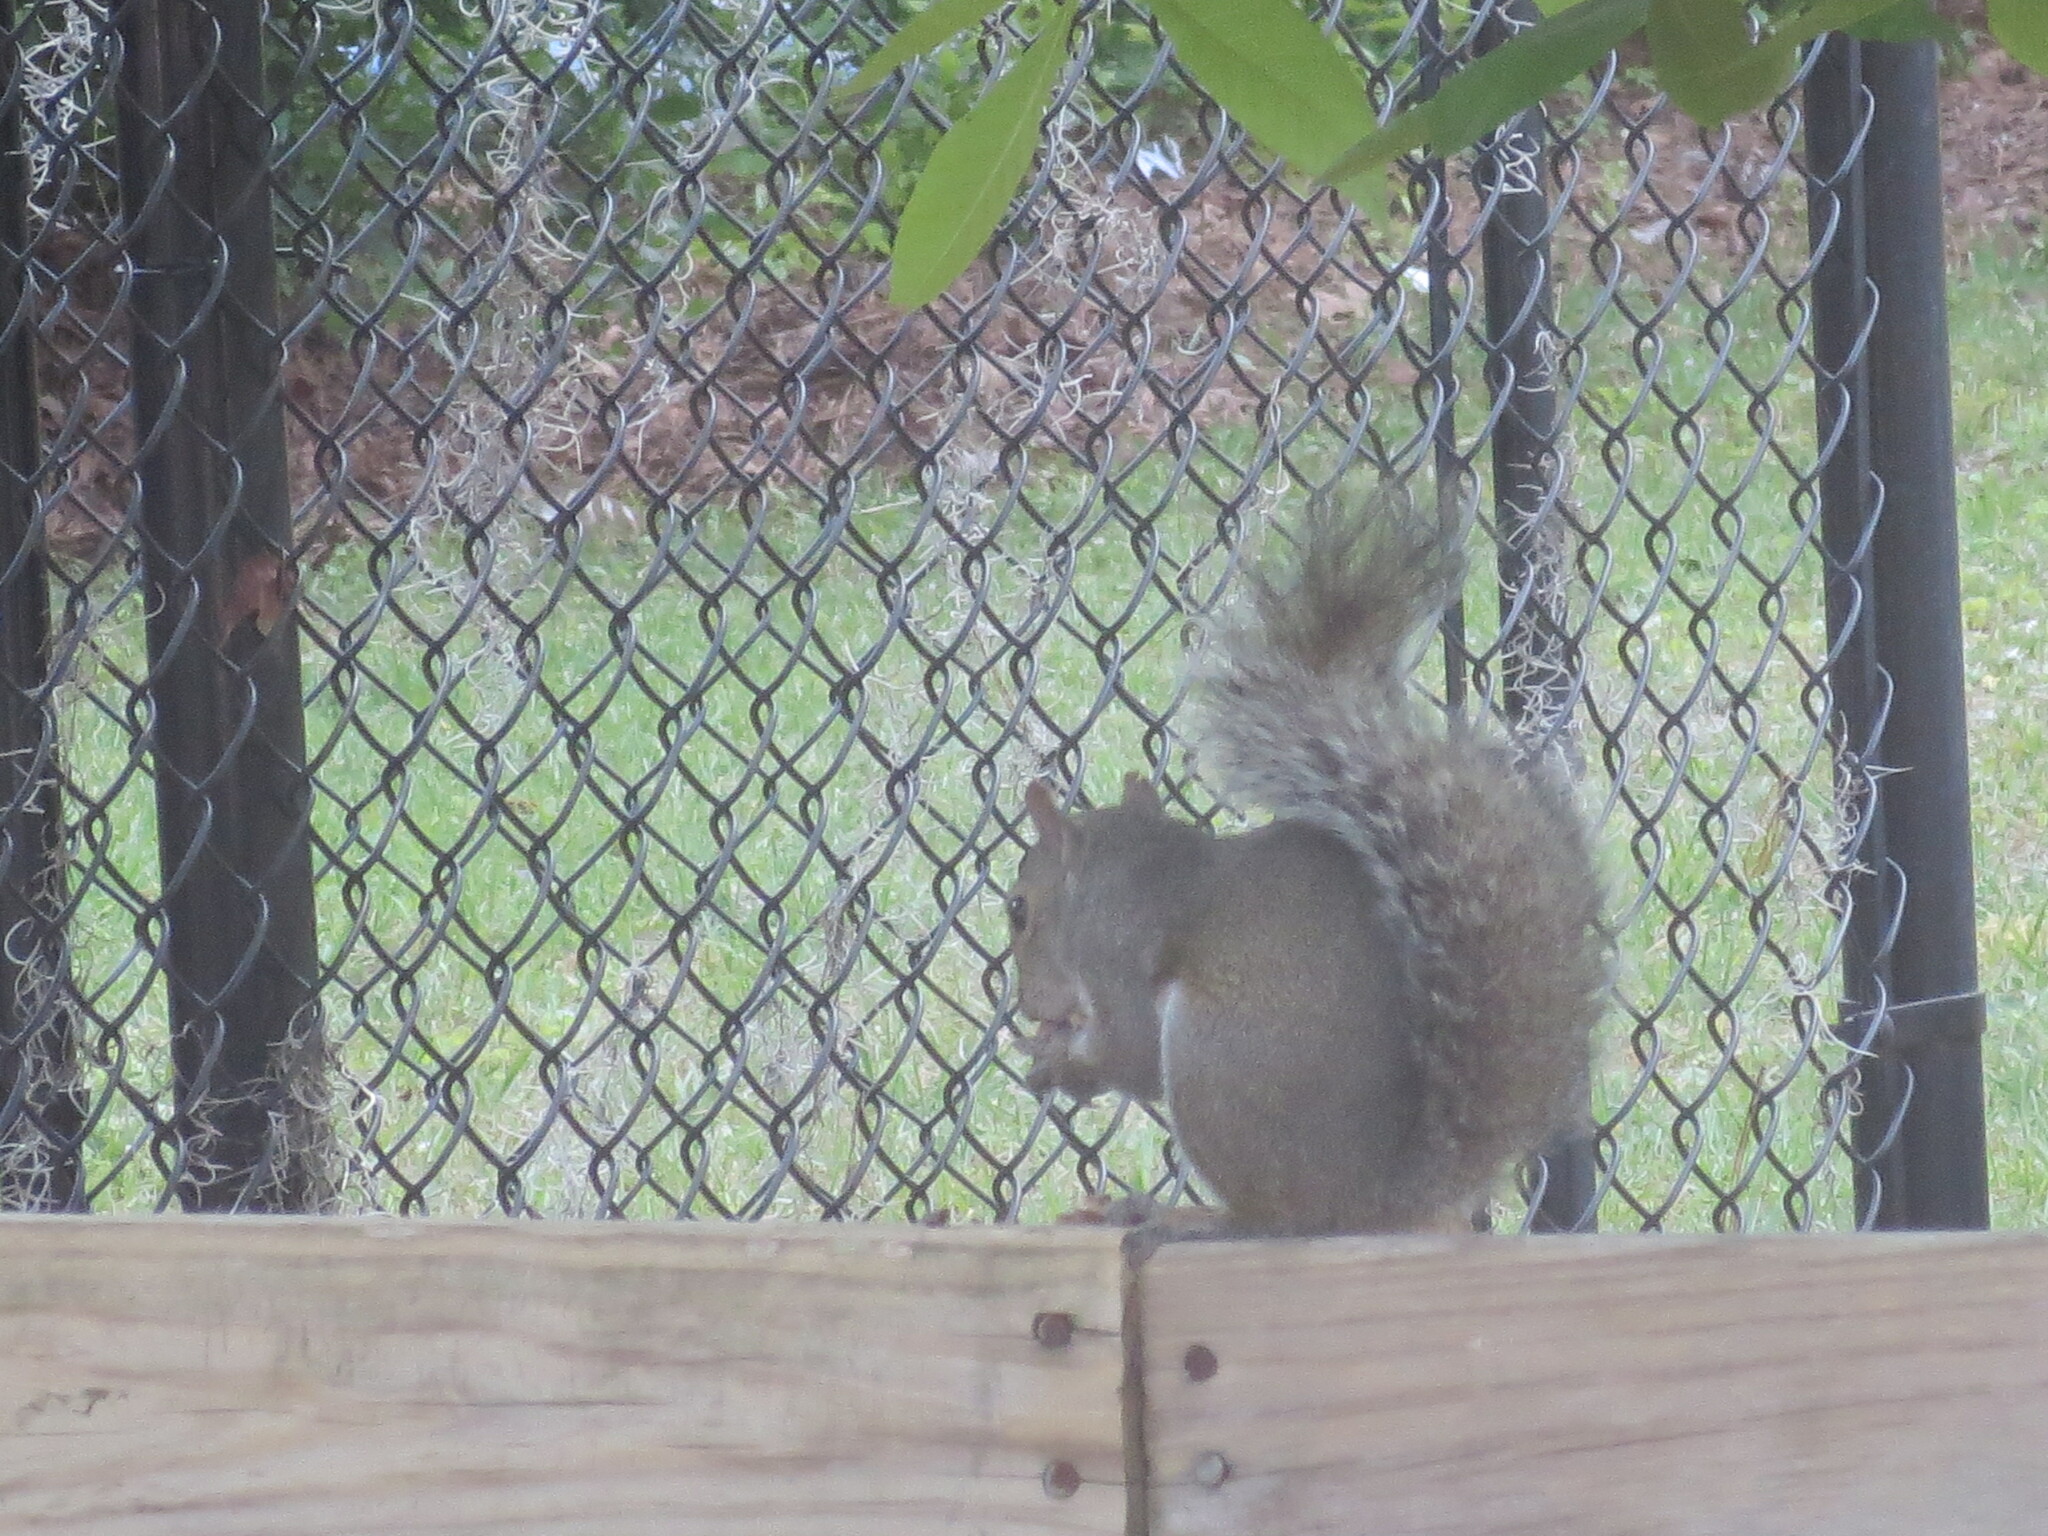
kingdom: Animalia
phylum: Chordata
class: Mammalia
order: Rodentia
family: Sciuridae
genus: Sciurus
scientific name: Sciurus carolinensis
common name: Eastern gray squirrel
